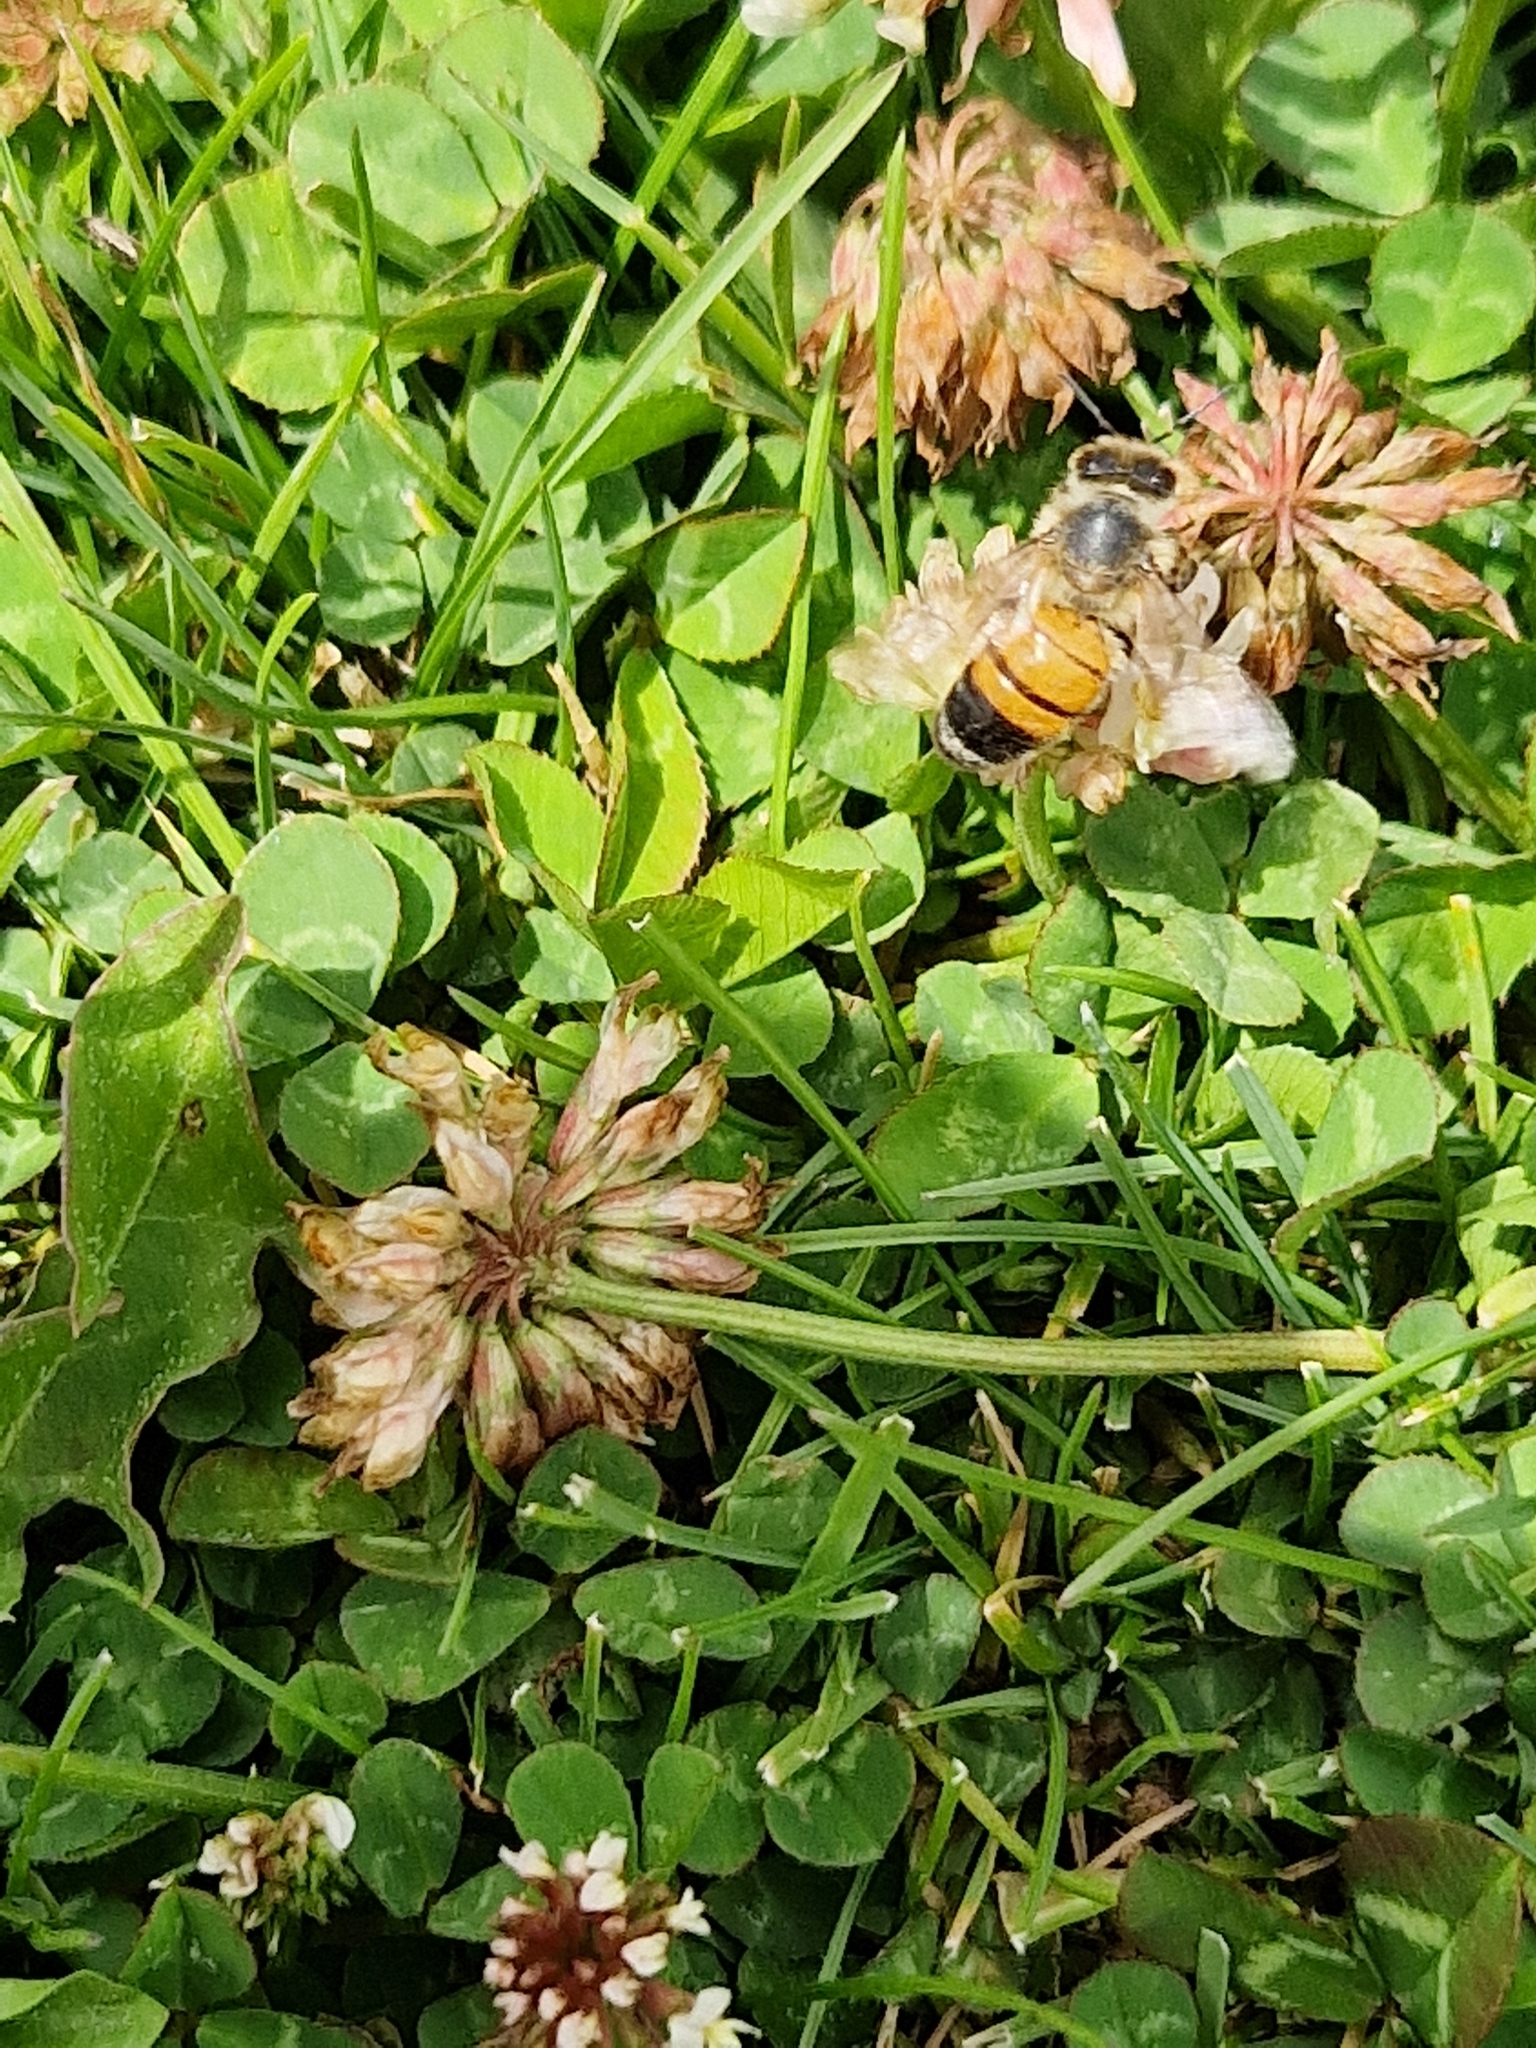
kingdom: Animalia
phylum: Arthropoda
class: Insecta
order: Hymenoptera
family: Apidae
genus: Apis
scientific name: Apis mellifera
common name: Honey bee
